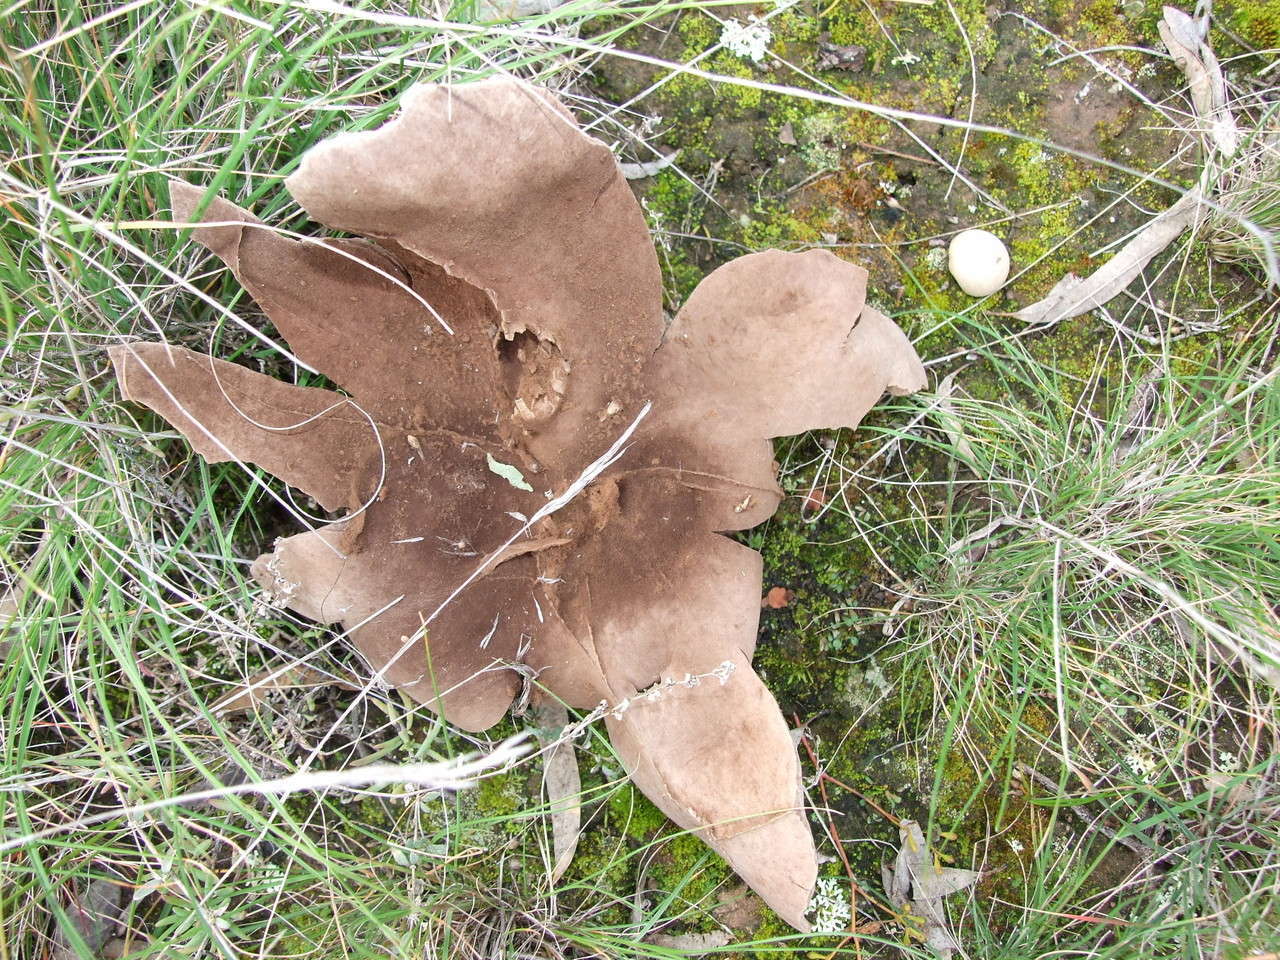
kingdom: Fungi
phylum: Basidiomycota
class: Agaricomycetes
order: Agaricales
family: Agaricaceae
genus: Mycenastrum
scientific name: Mycenastrum corium
